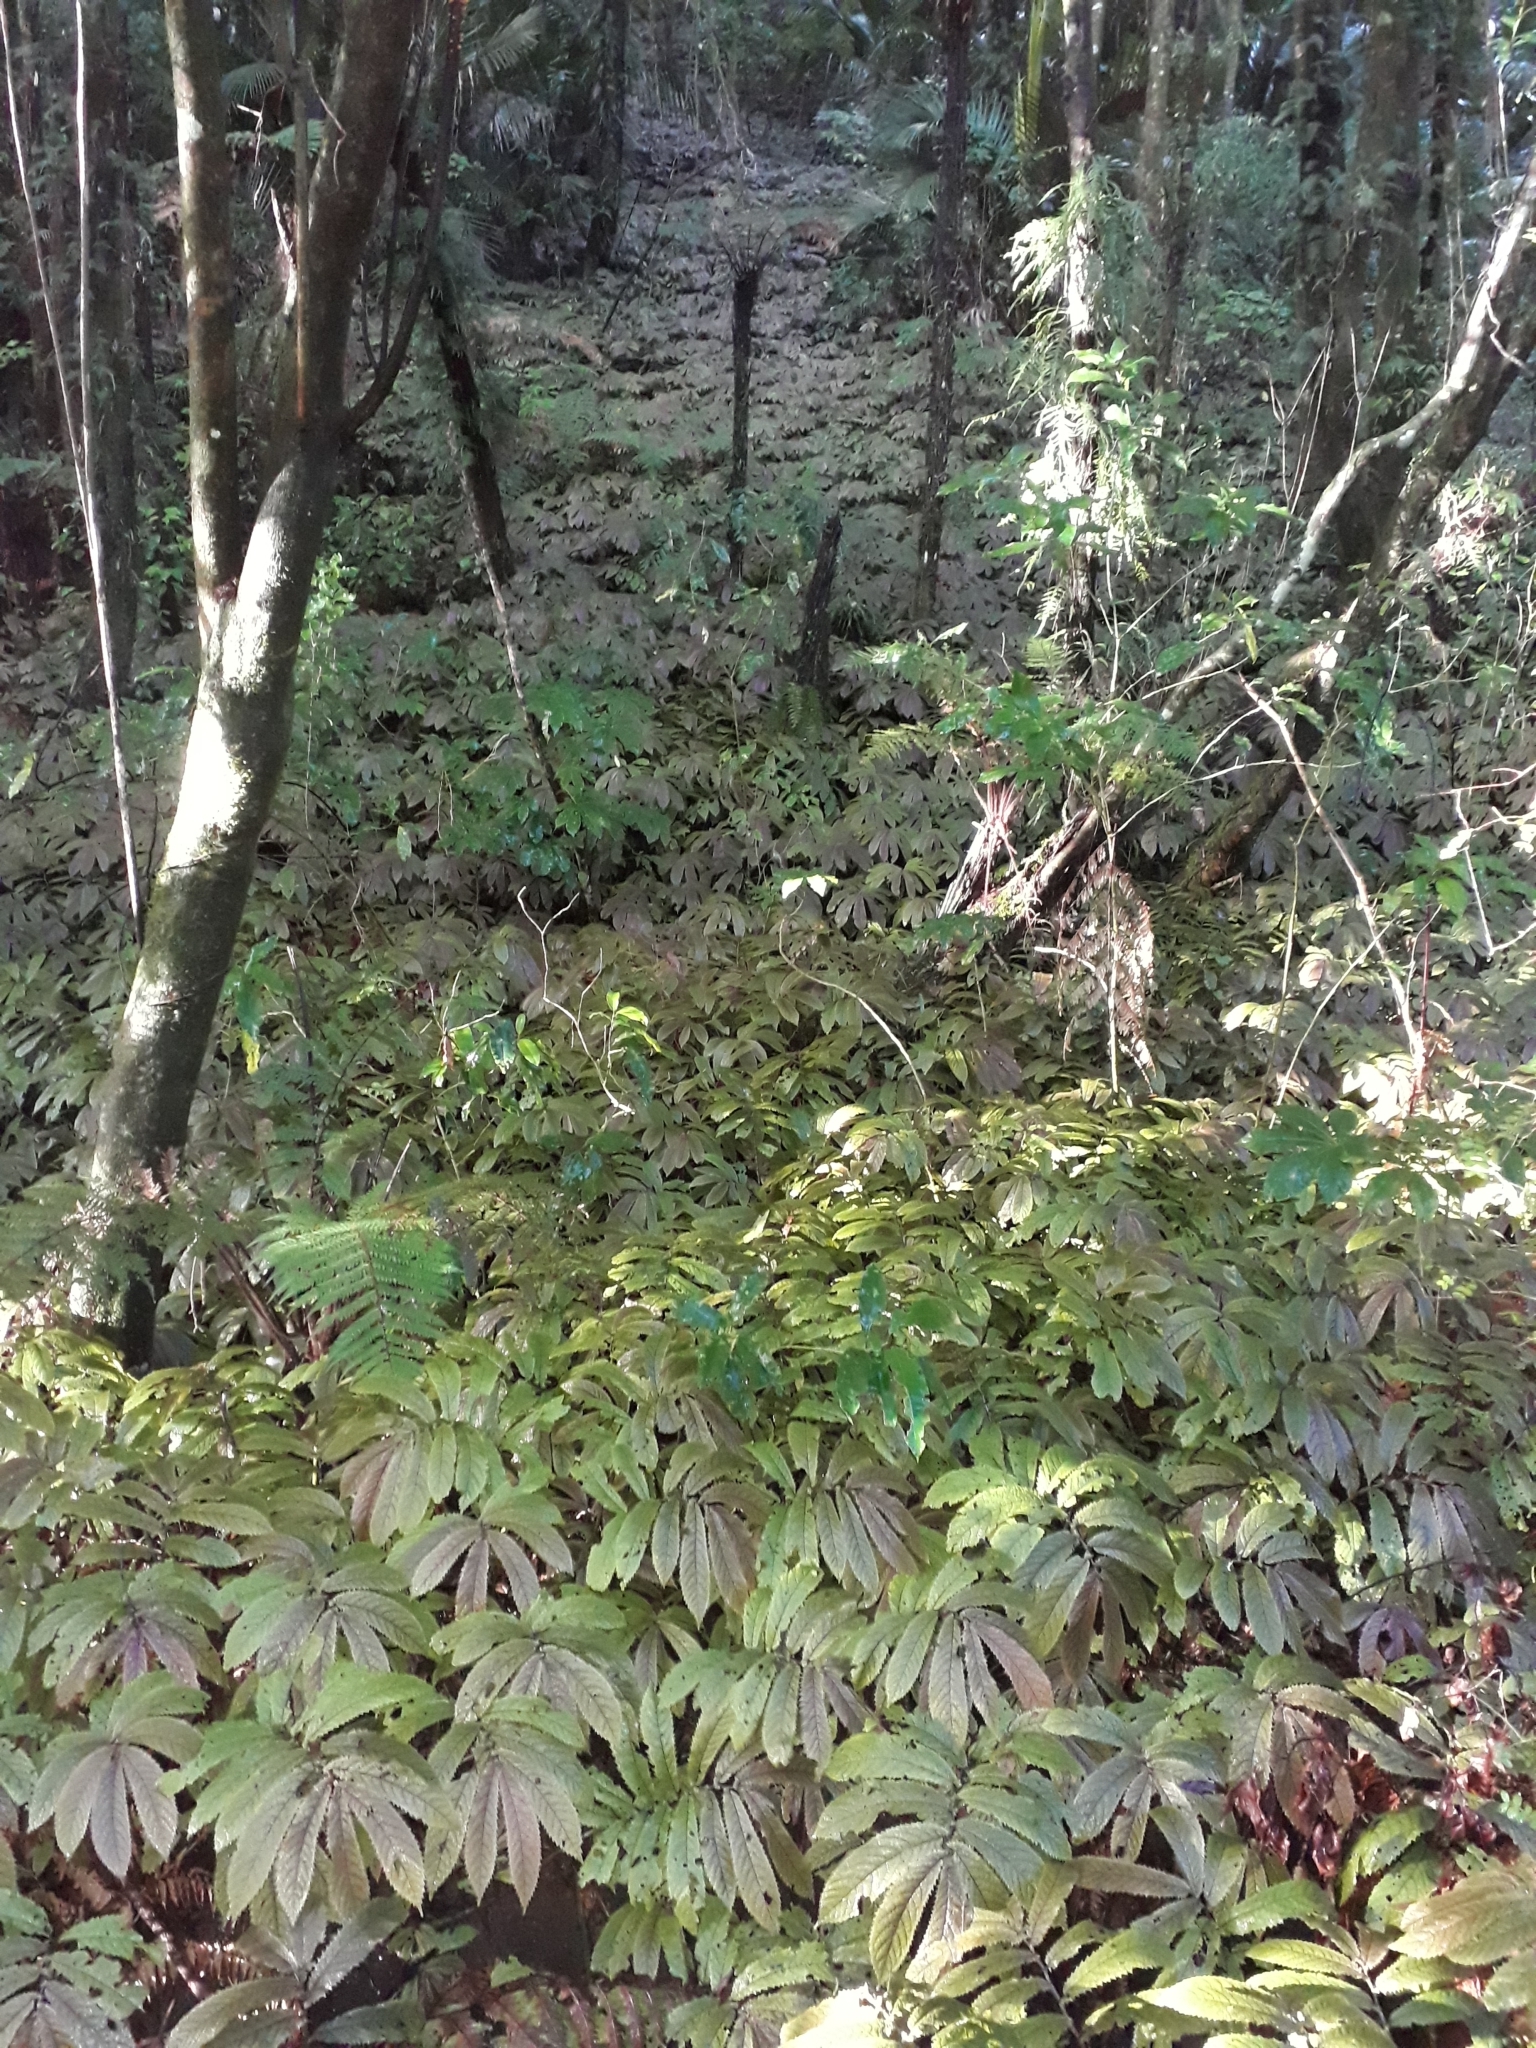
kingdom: Plantae
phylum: Tracheophyta
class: Magnoliopsida
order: Rosales
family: Urticaceae
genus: Elatostema
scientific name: Elatostema rugosum
